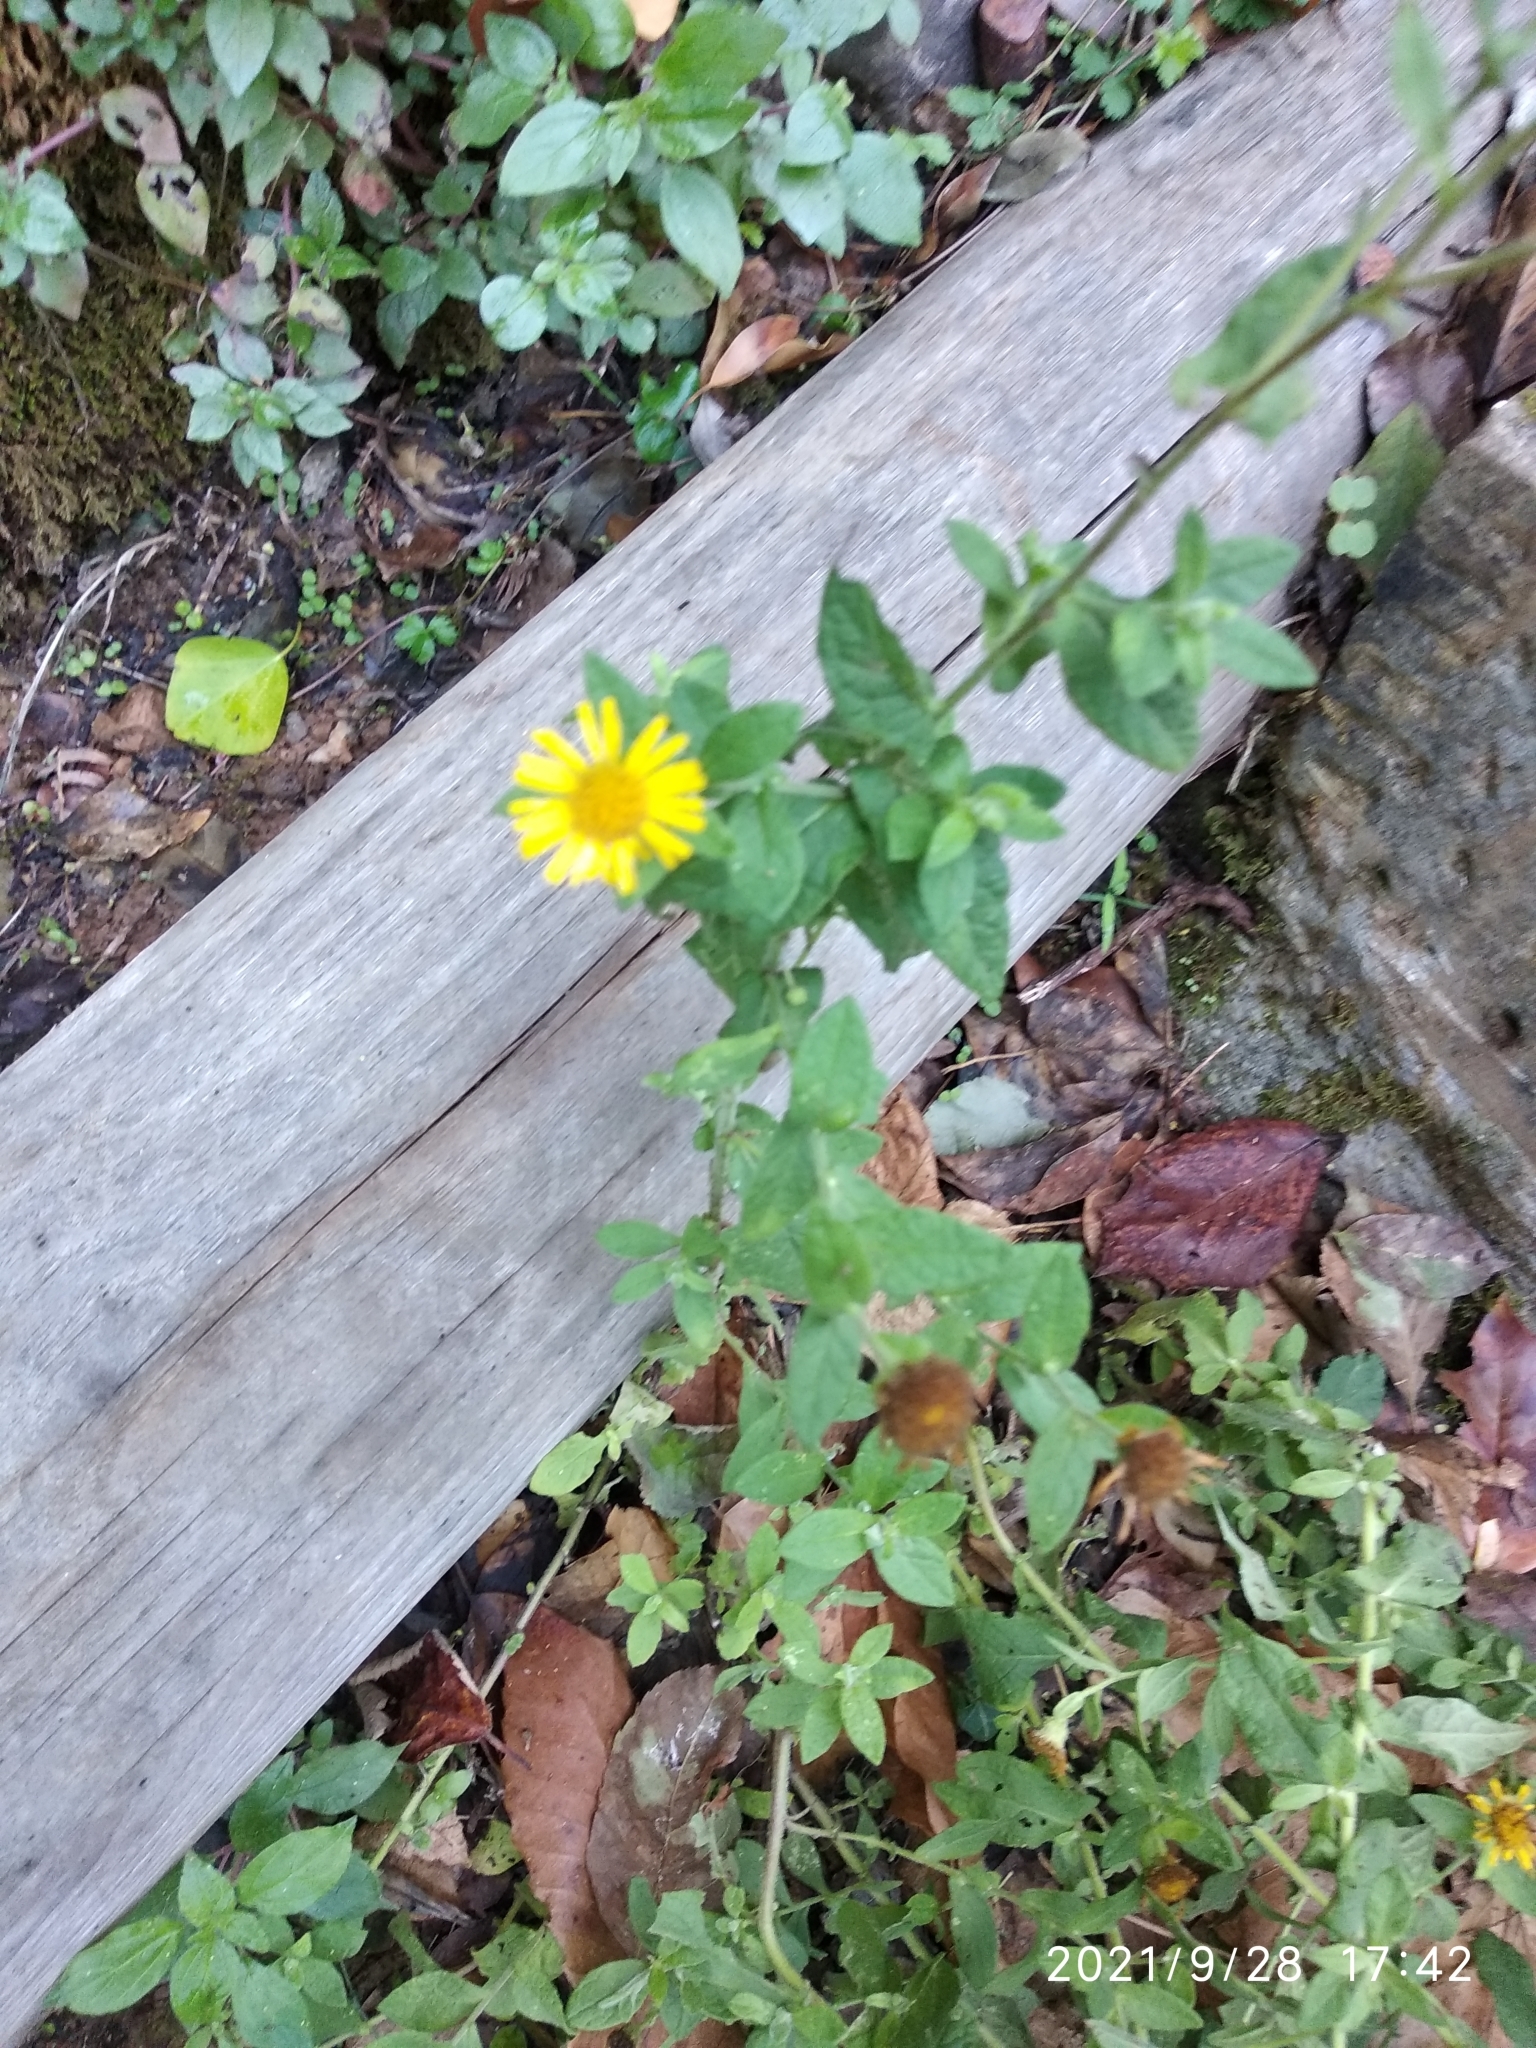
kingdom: Plantae
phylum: Tracheophyta
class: Magnoliopsida
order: Asterales
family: Asteraceae
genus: Pulicaria
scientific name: Pulicaria dysenterica
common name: Common fleabane
